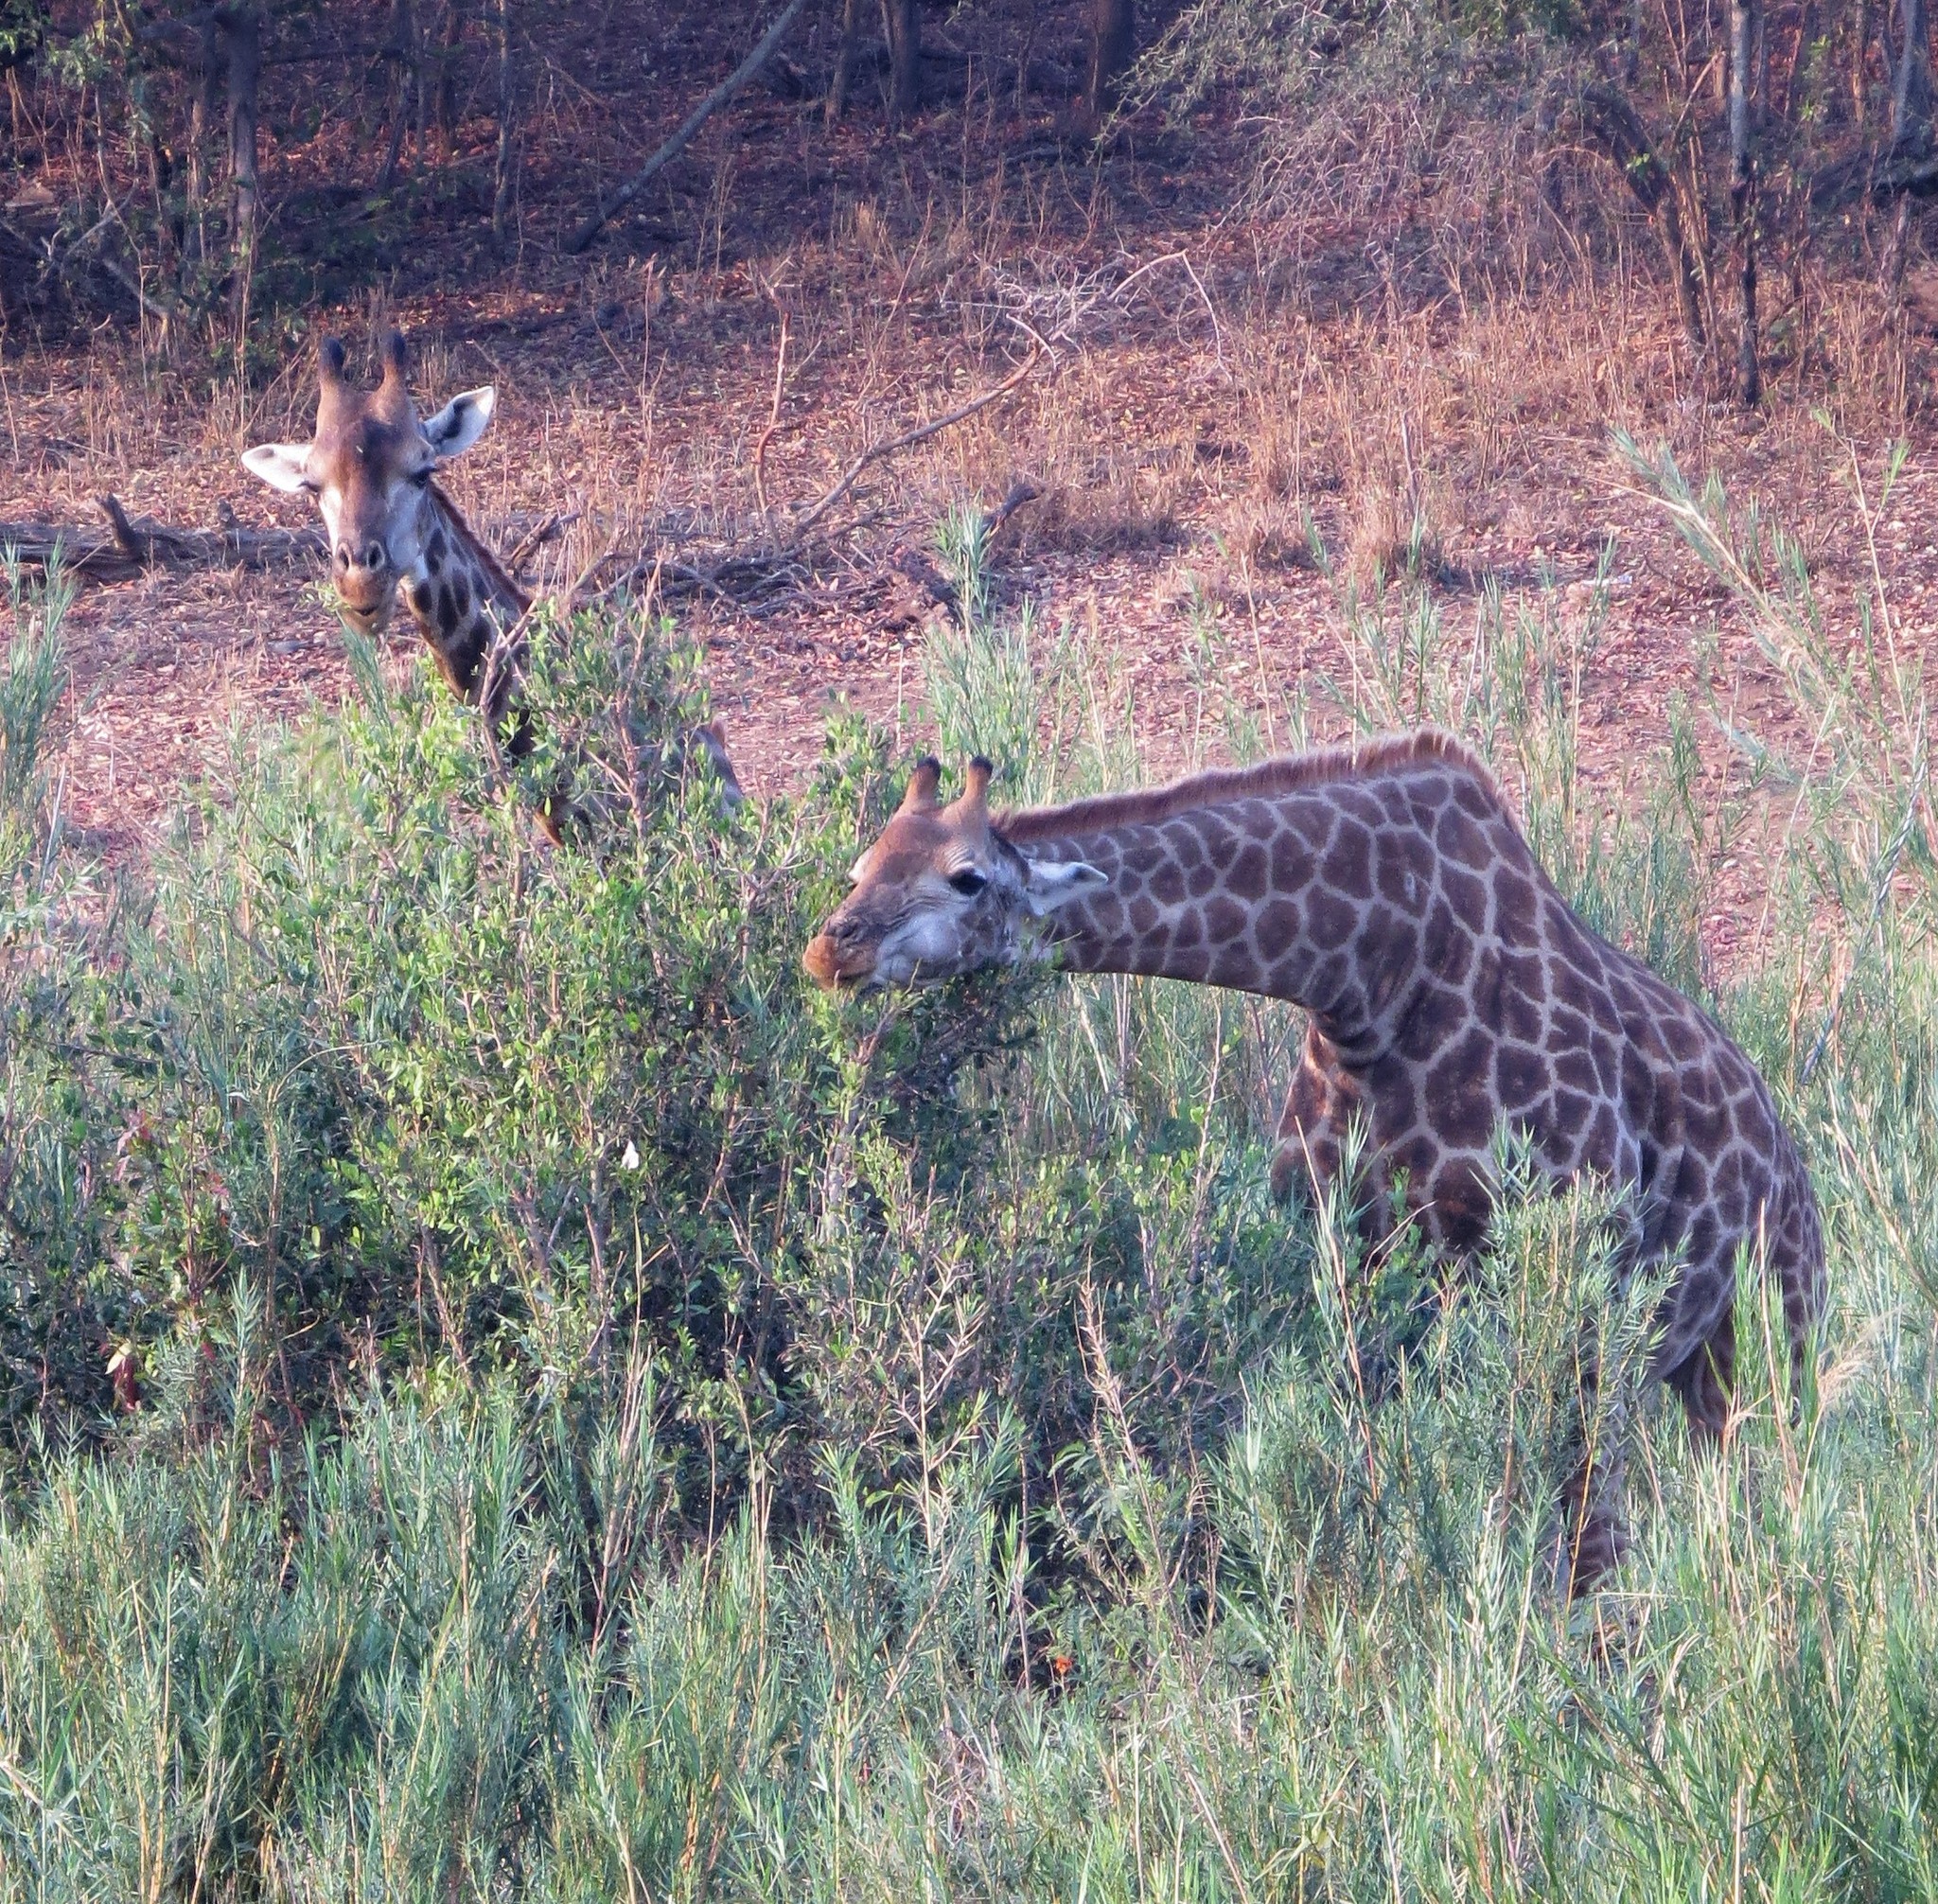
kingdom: Animalia
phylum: Chordata
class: Mammalia
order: Artiodactyla
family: Giraffidae
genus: Giraffa
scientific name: Giraffa giraffa
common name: Southern giraffe
